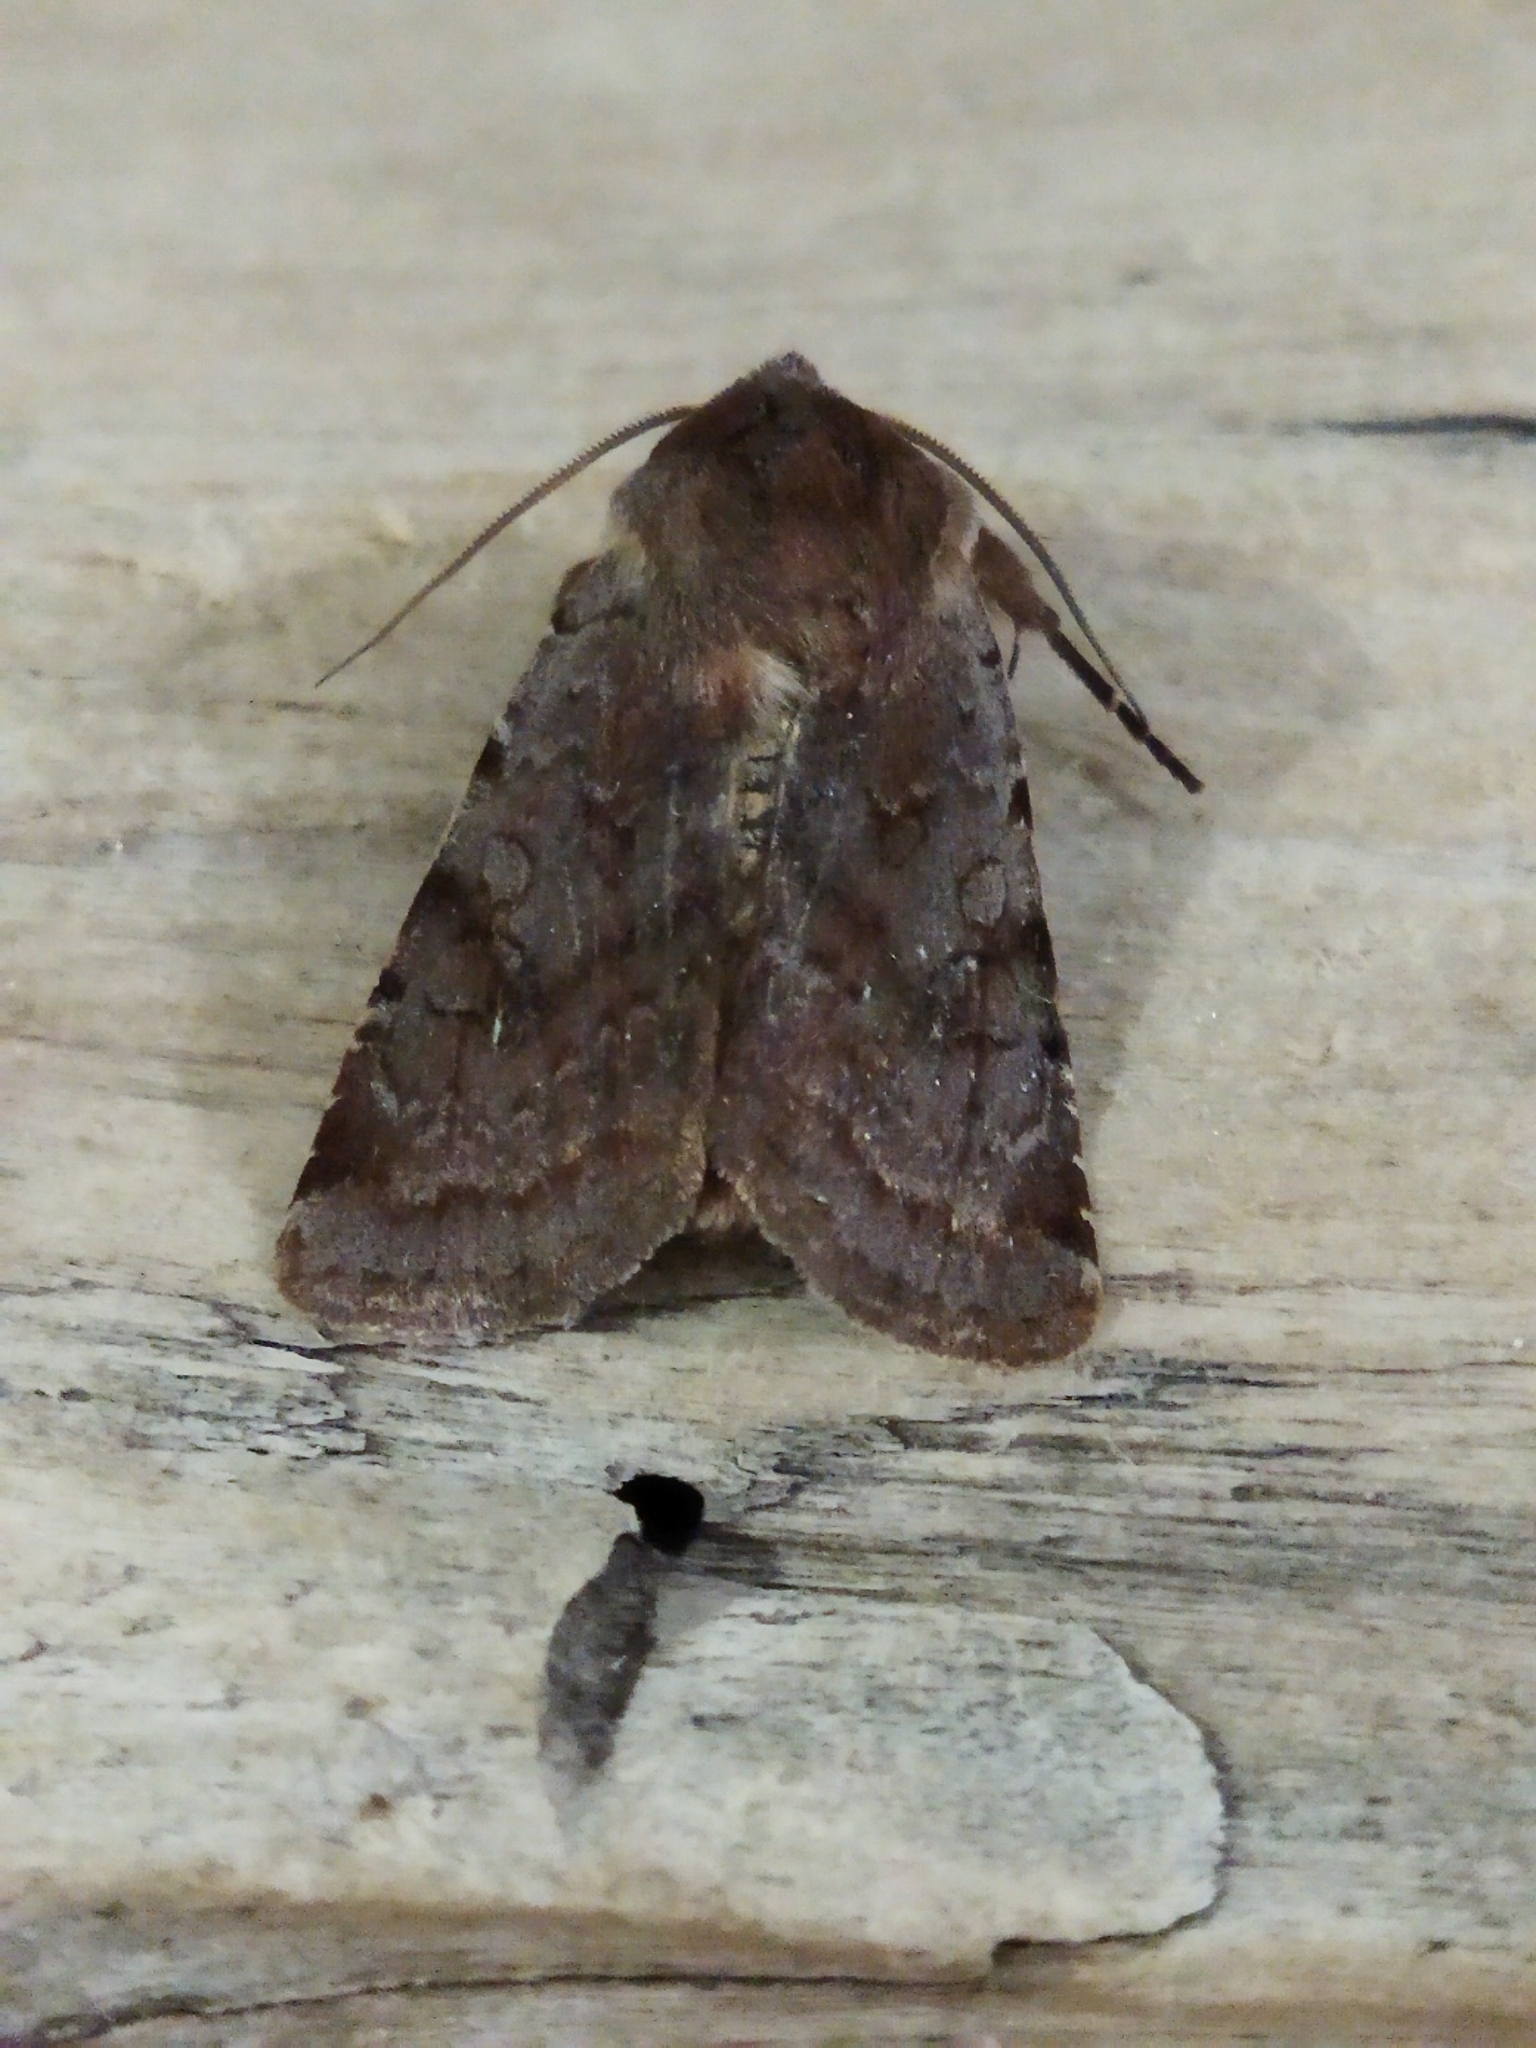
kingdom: Animalia
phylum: Arthropoda
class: Insecta
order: Lepidoptera
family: Noctuidae
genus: Cerastis
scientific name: Cerastis rubricosa
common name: Red chestnut
